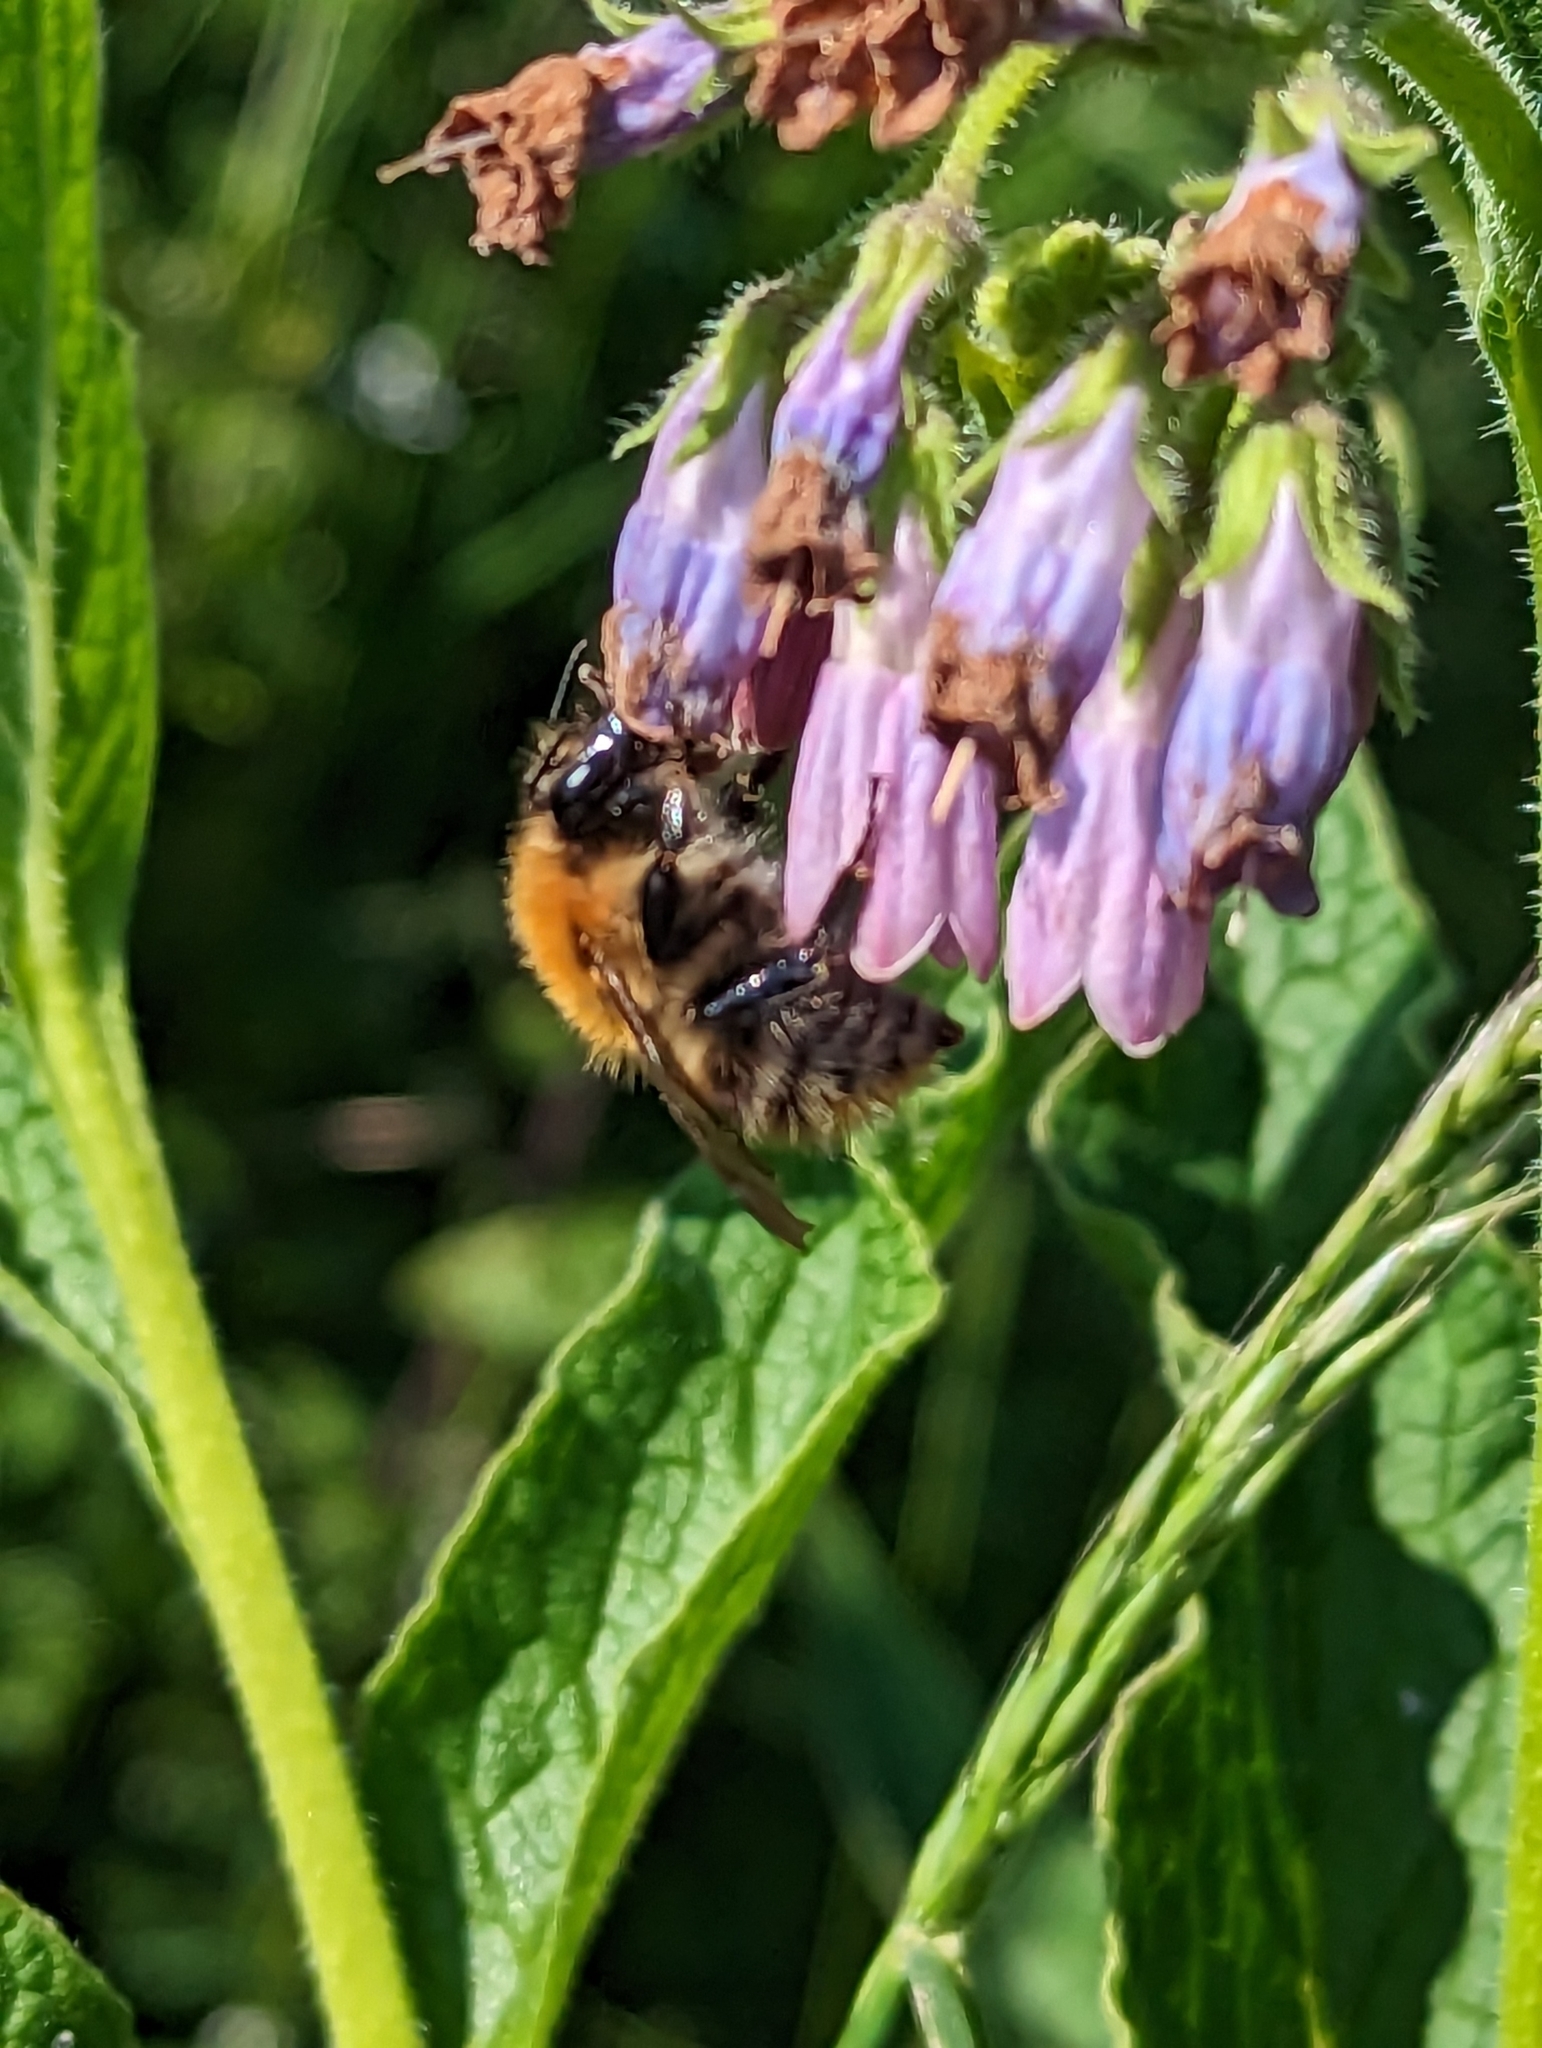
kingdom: Animalia
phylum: Arthropoda
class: Insecta
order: Hymenoptera
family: Apidae
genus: Bombus
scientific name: Bombus pascuorum
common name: Common carder bee
